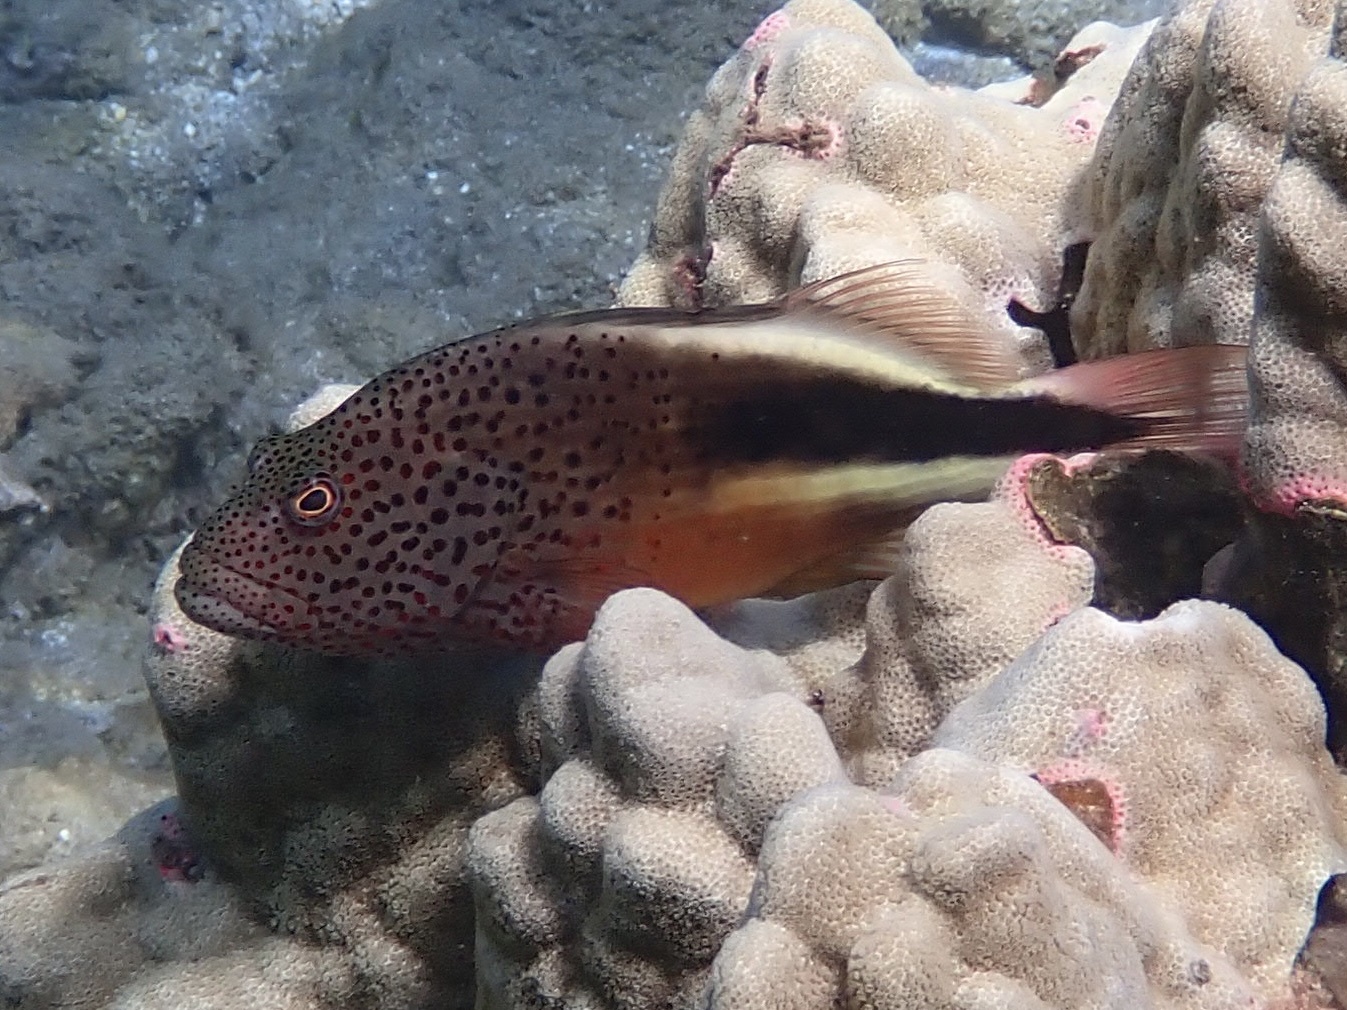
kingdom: Animalia
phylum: Chordata
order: Perciformes
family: Cirrhitidae
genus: Paracirrhites
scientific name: Paracirrhites forsteri
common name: Freckled hawkfish
